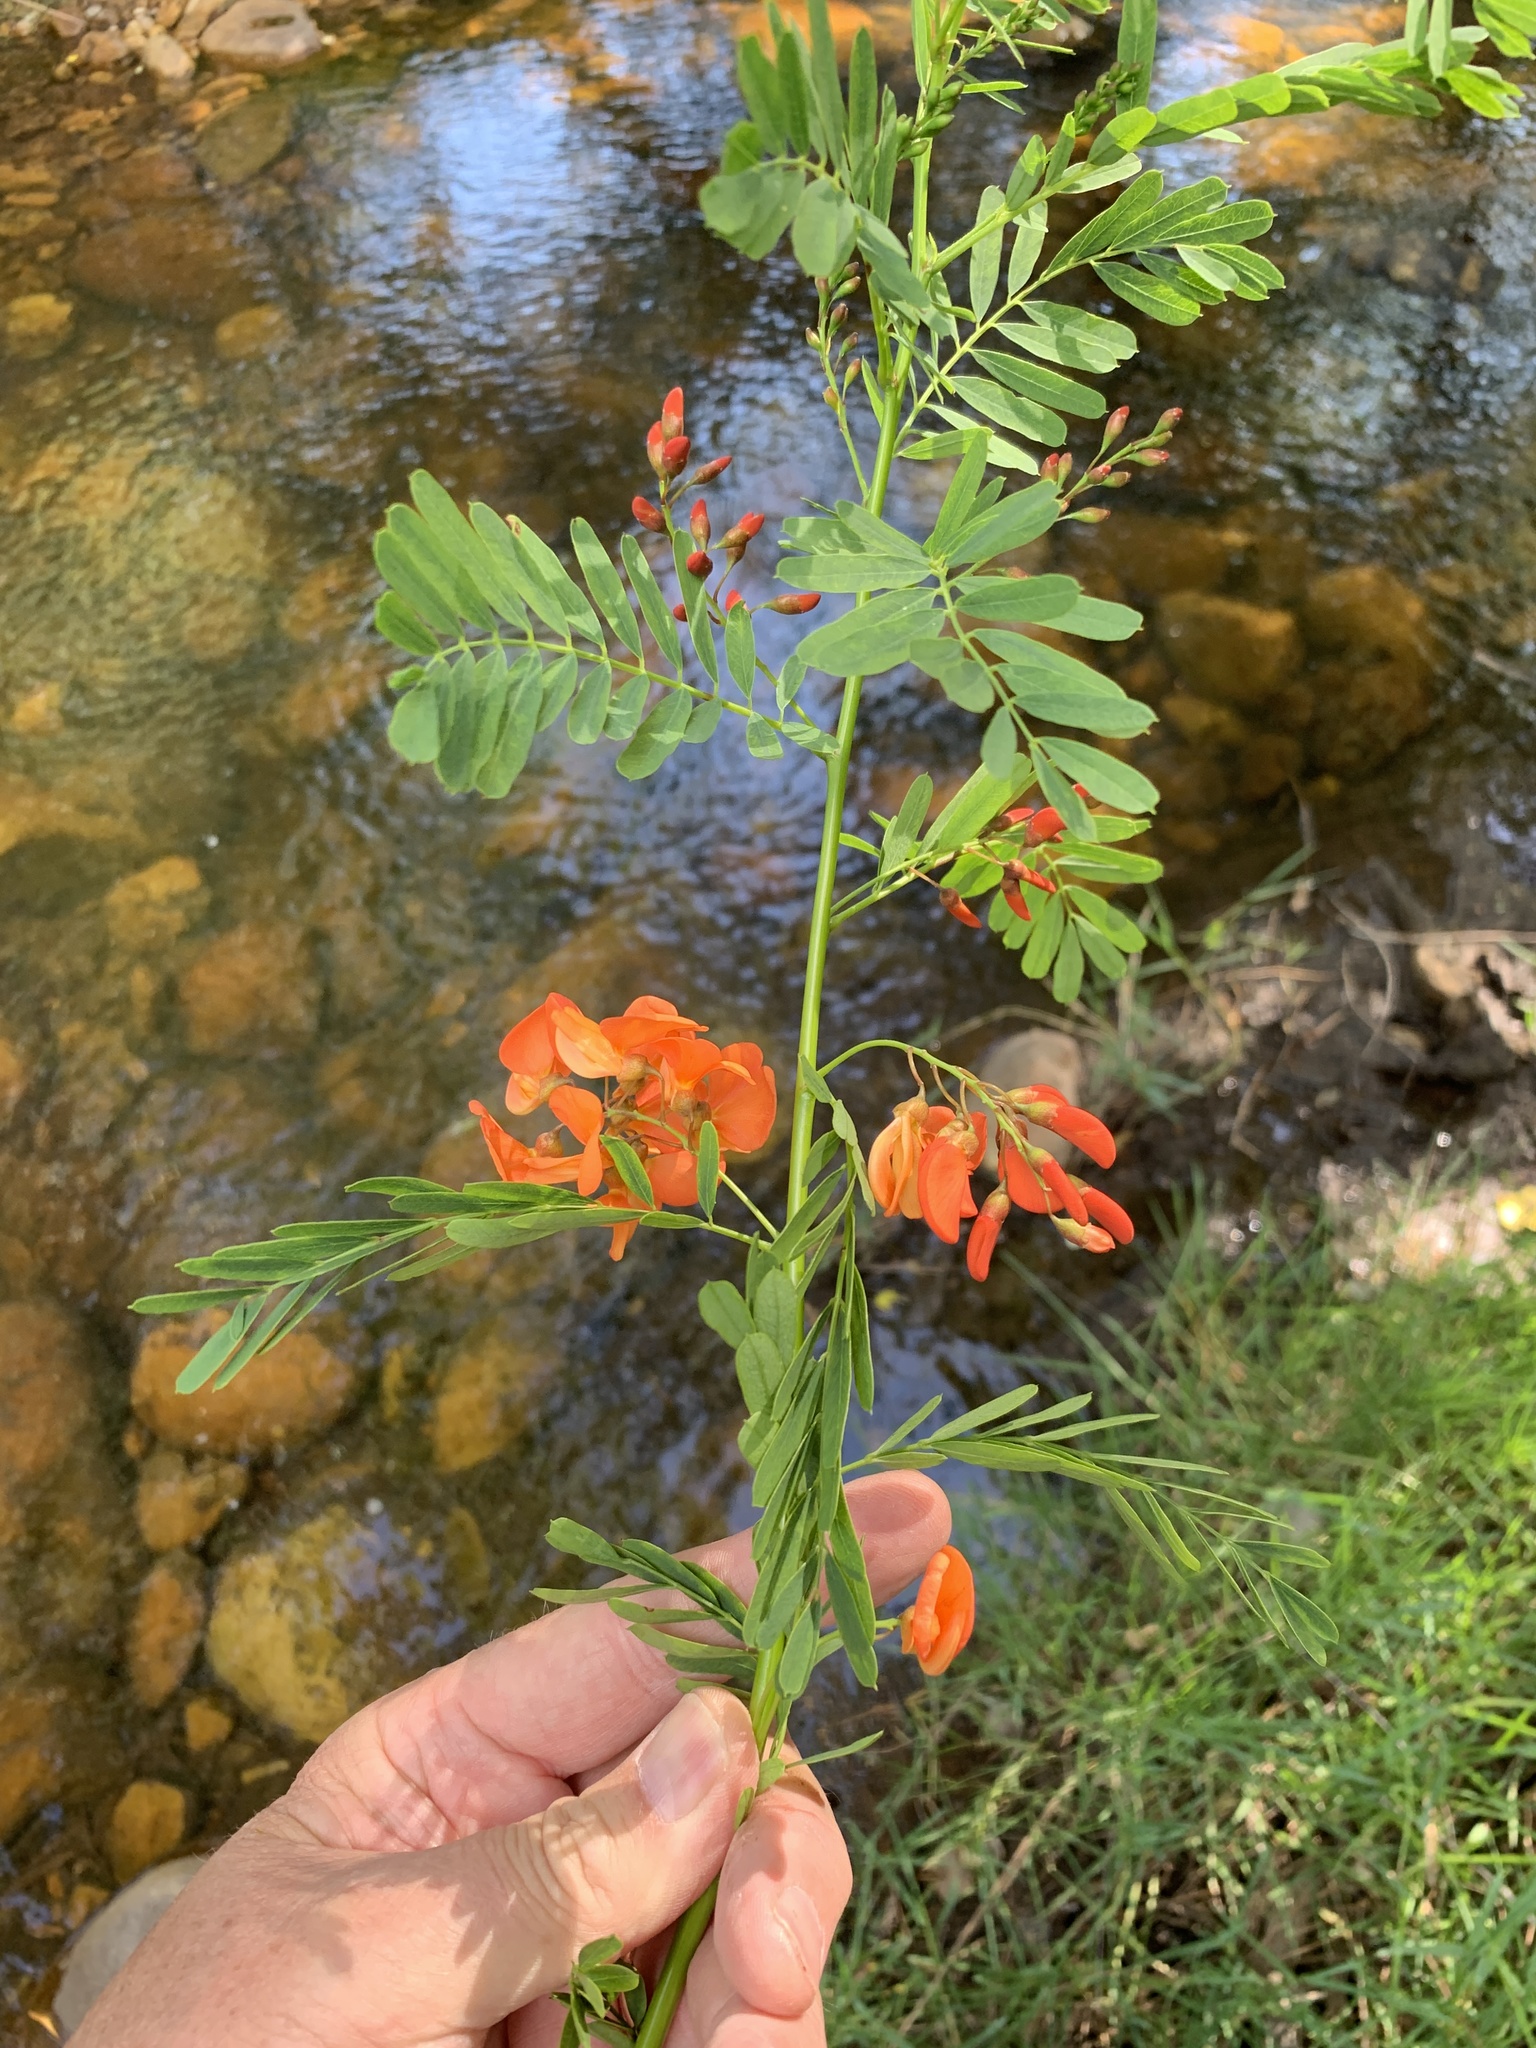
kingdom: Plantae
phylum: Tracheophyta
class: Magnoliopsida
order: Fabales
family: Fabaceae
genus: Sesbania
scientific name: Sesbania punicea
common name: Rattlebox
